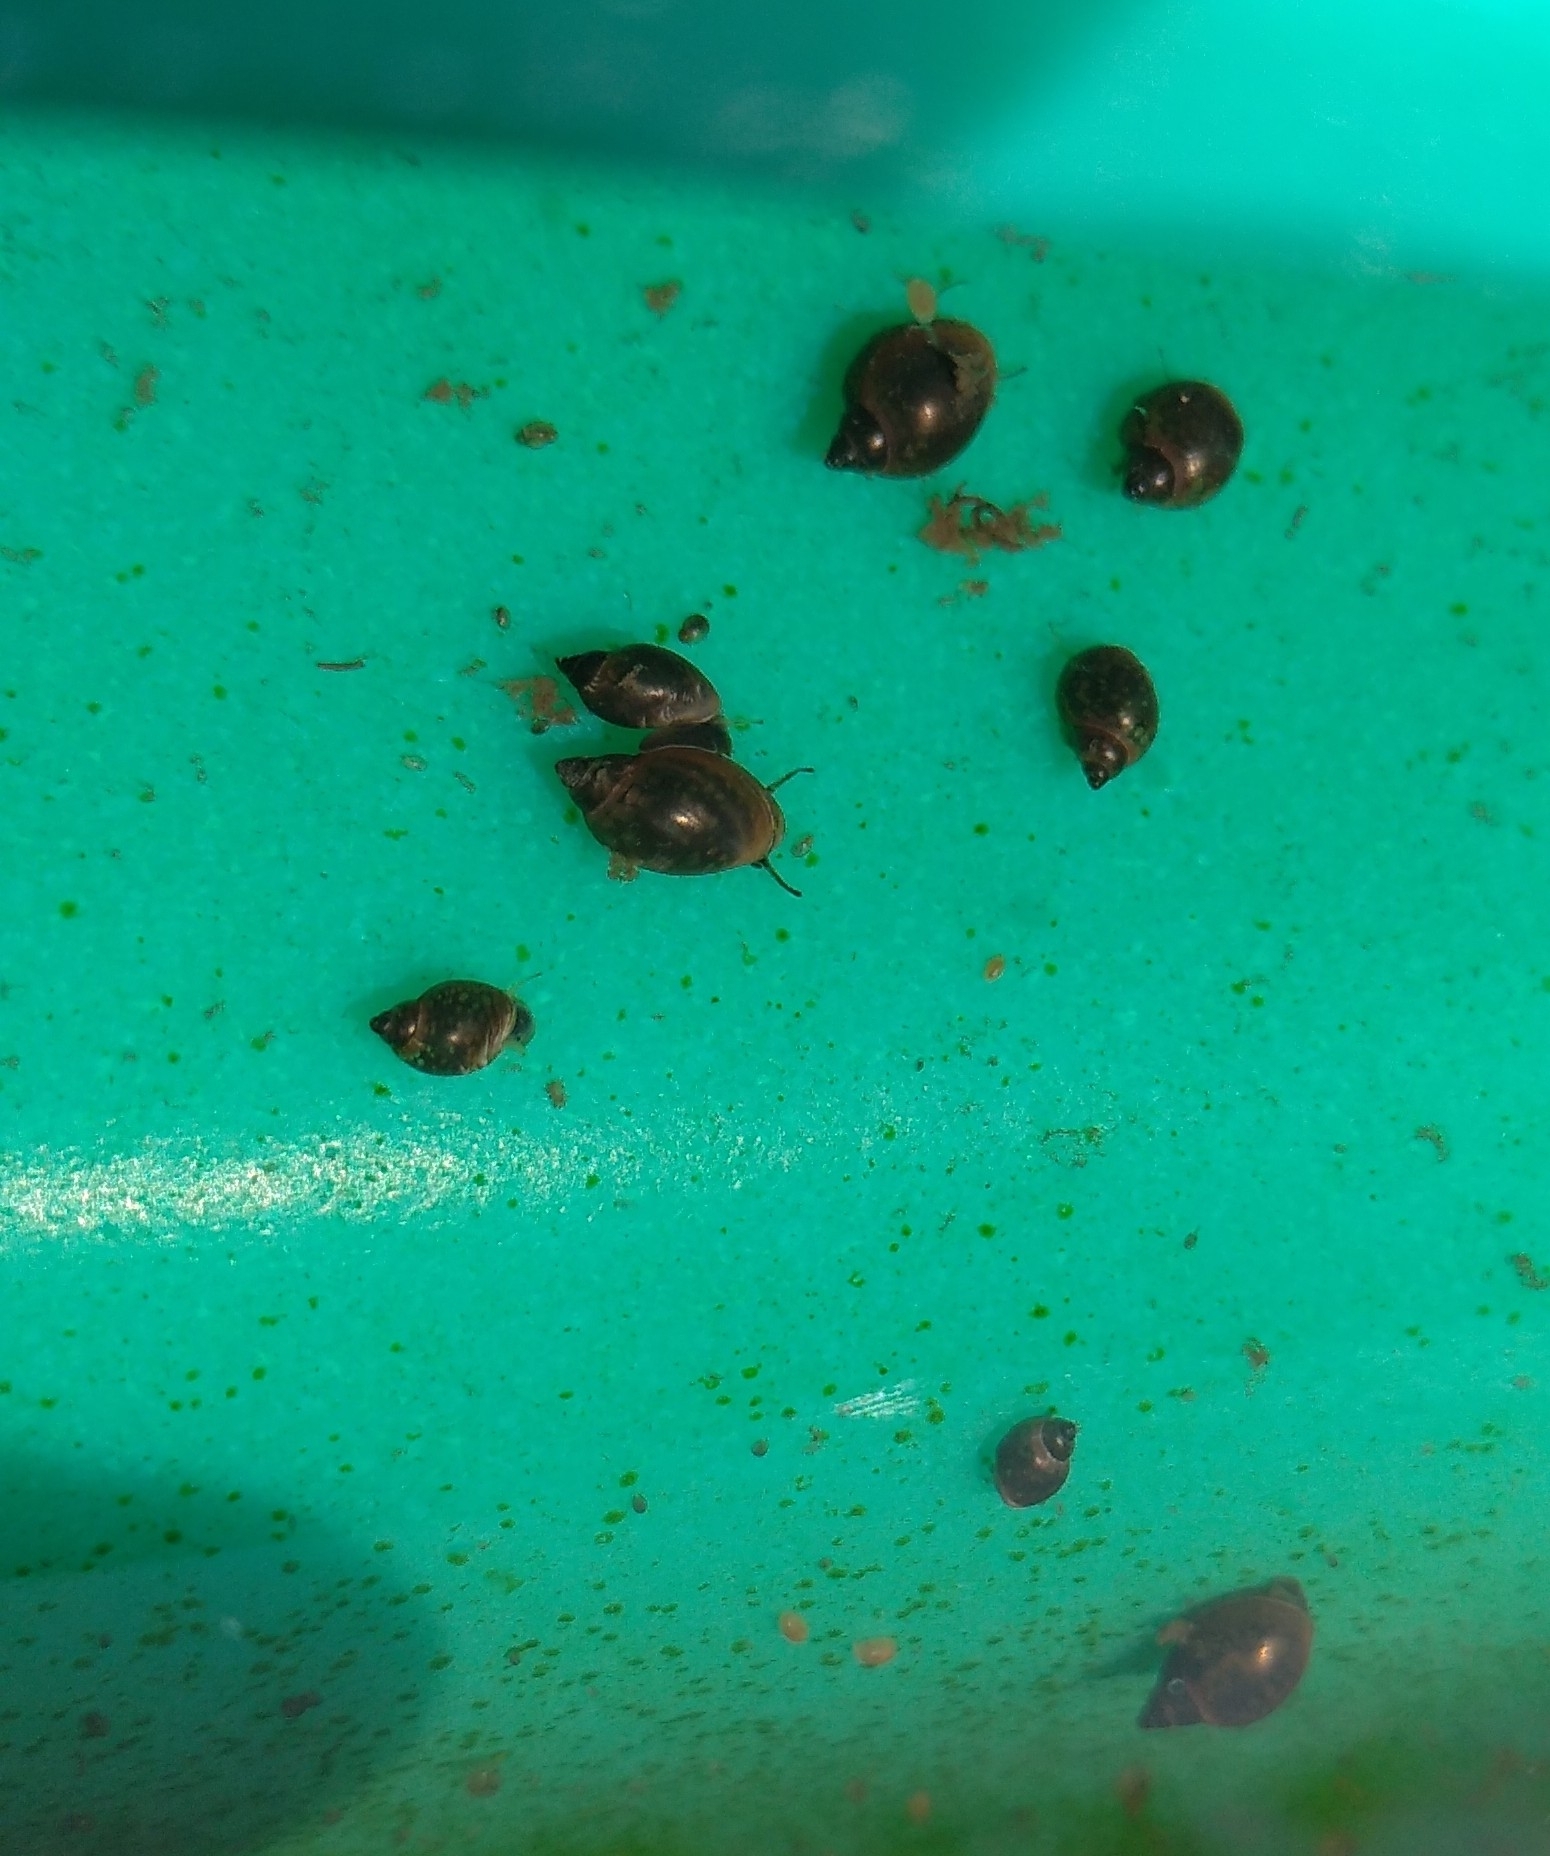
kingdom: Animalia
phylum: Mollusca
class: Gastropoda
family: Physidae
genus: Physella
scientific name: Physella acuta
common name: European physa
